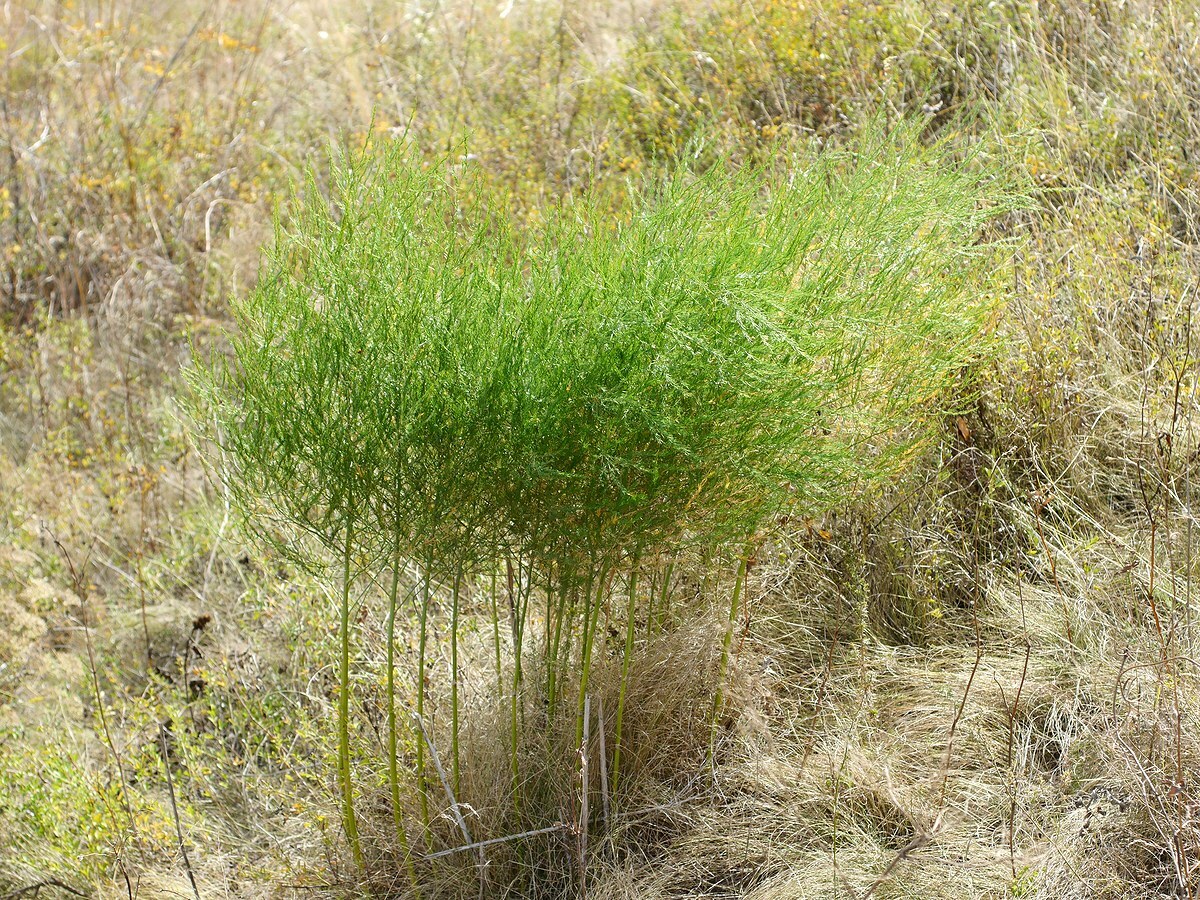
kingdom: Plantae
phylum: Tracheophyta
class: Liliopsida
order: Asparagales
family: Asparagaceae
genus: Asparagus
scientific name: Asparagus officinalis
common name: Garden asparagus
